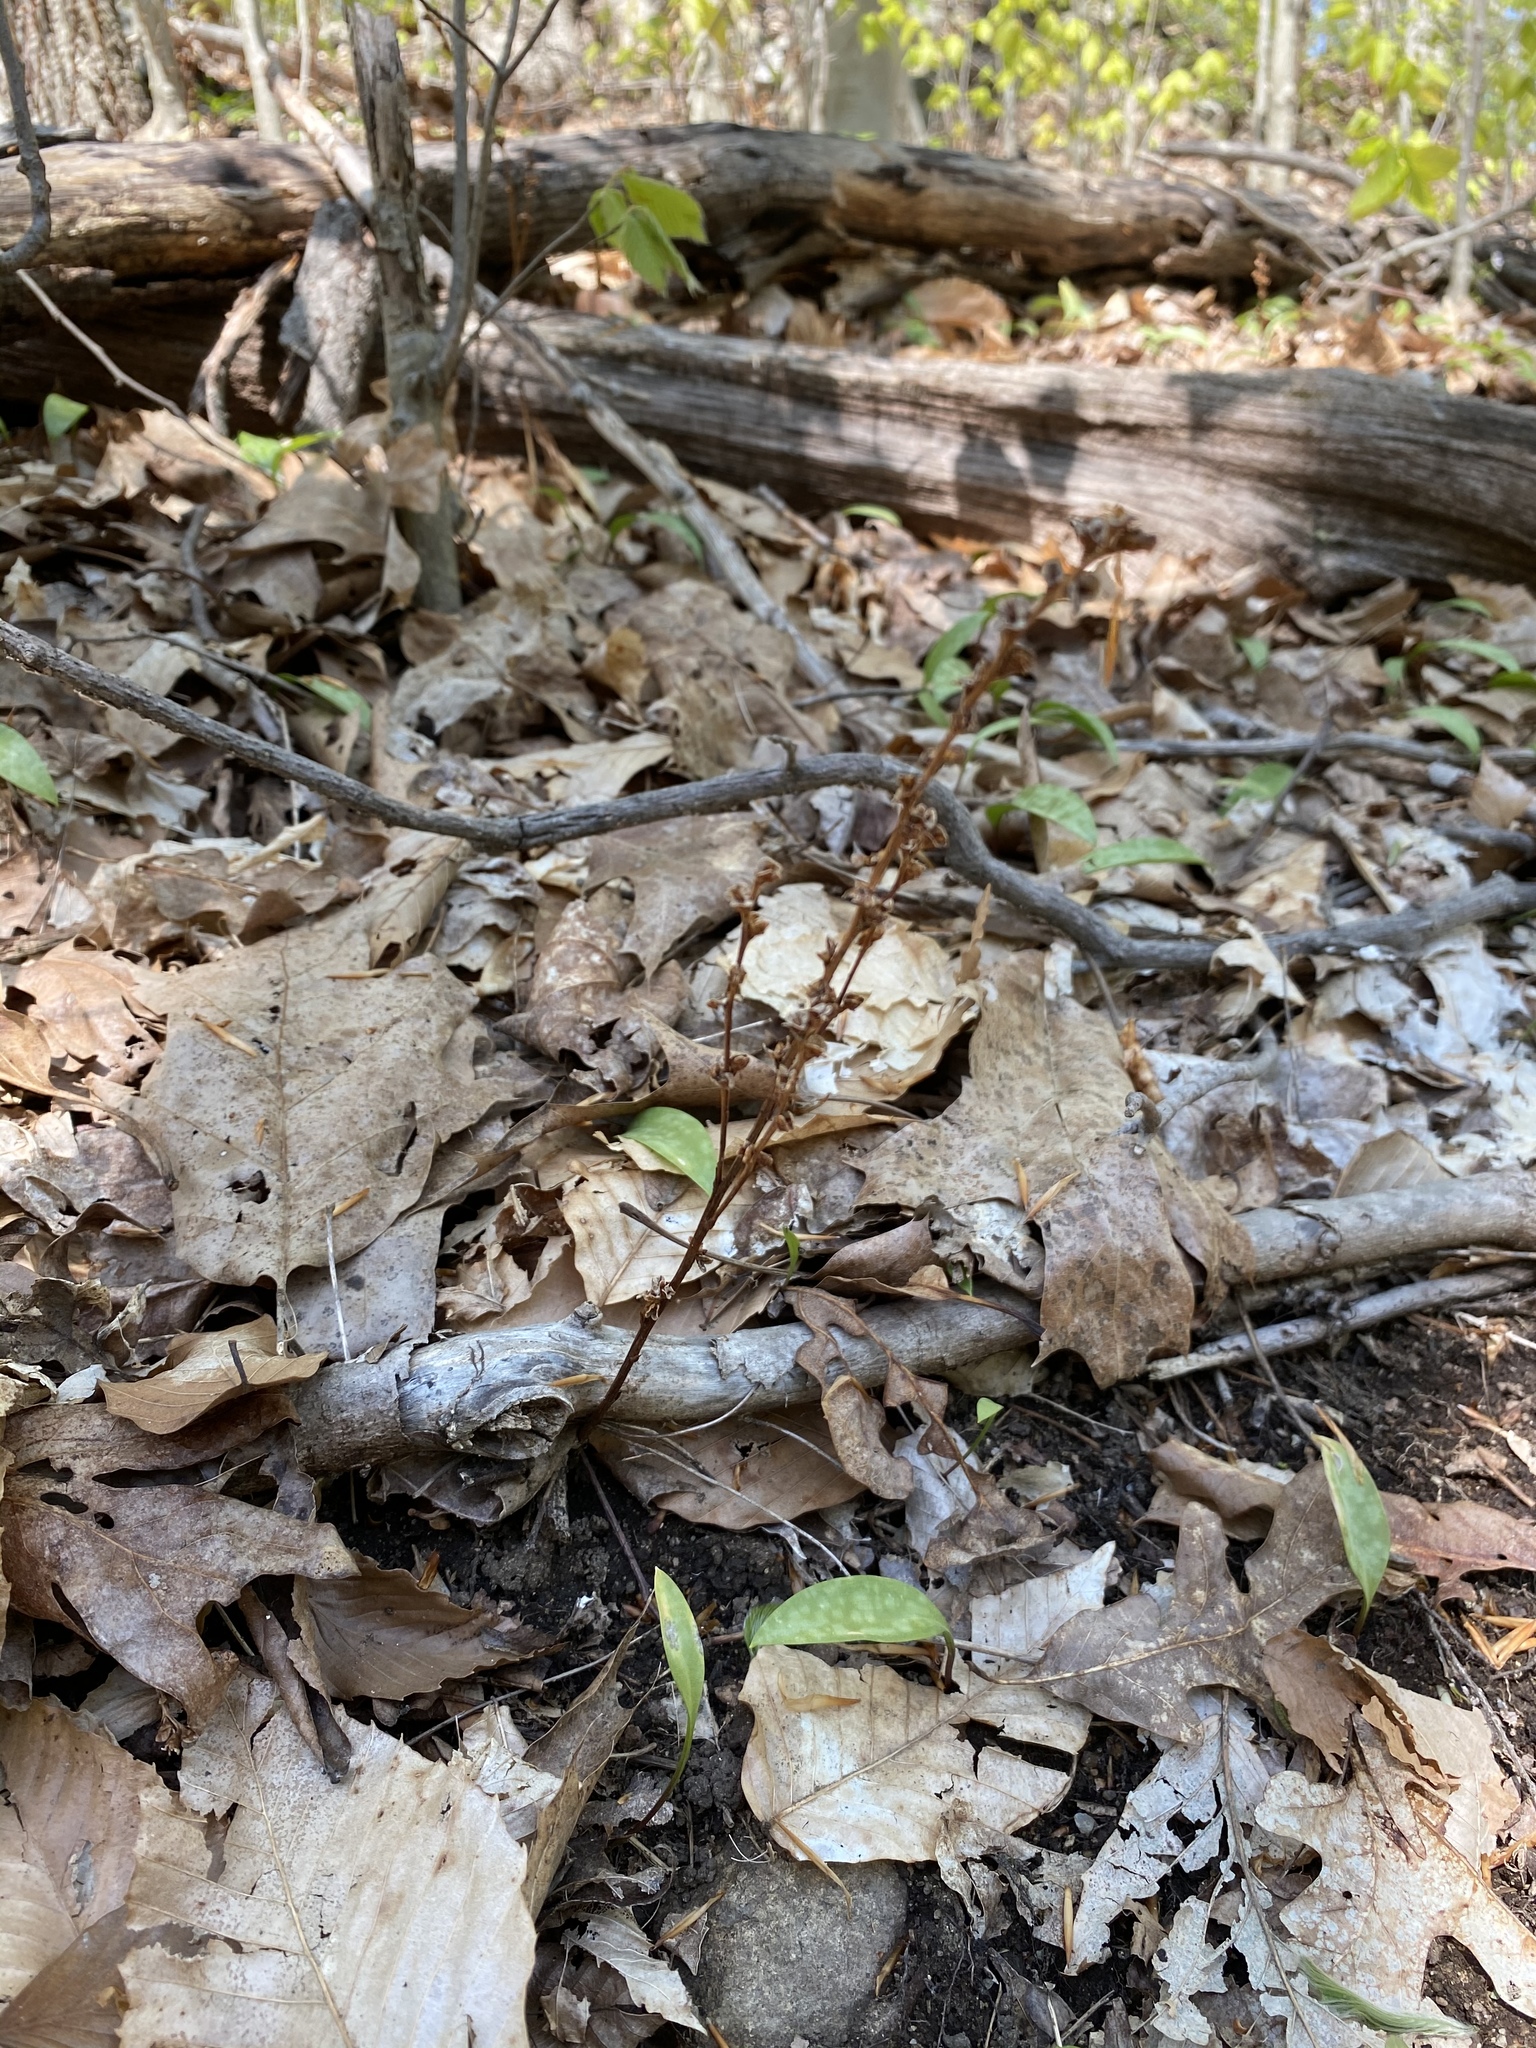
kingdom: Plantae
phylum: Tracheophyta
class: Magnoliopsida
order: Lamiales
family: Orobanchaceae
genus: Epifagus
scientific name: Epifagus virginiana
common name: Beechdrops
